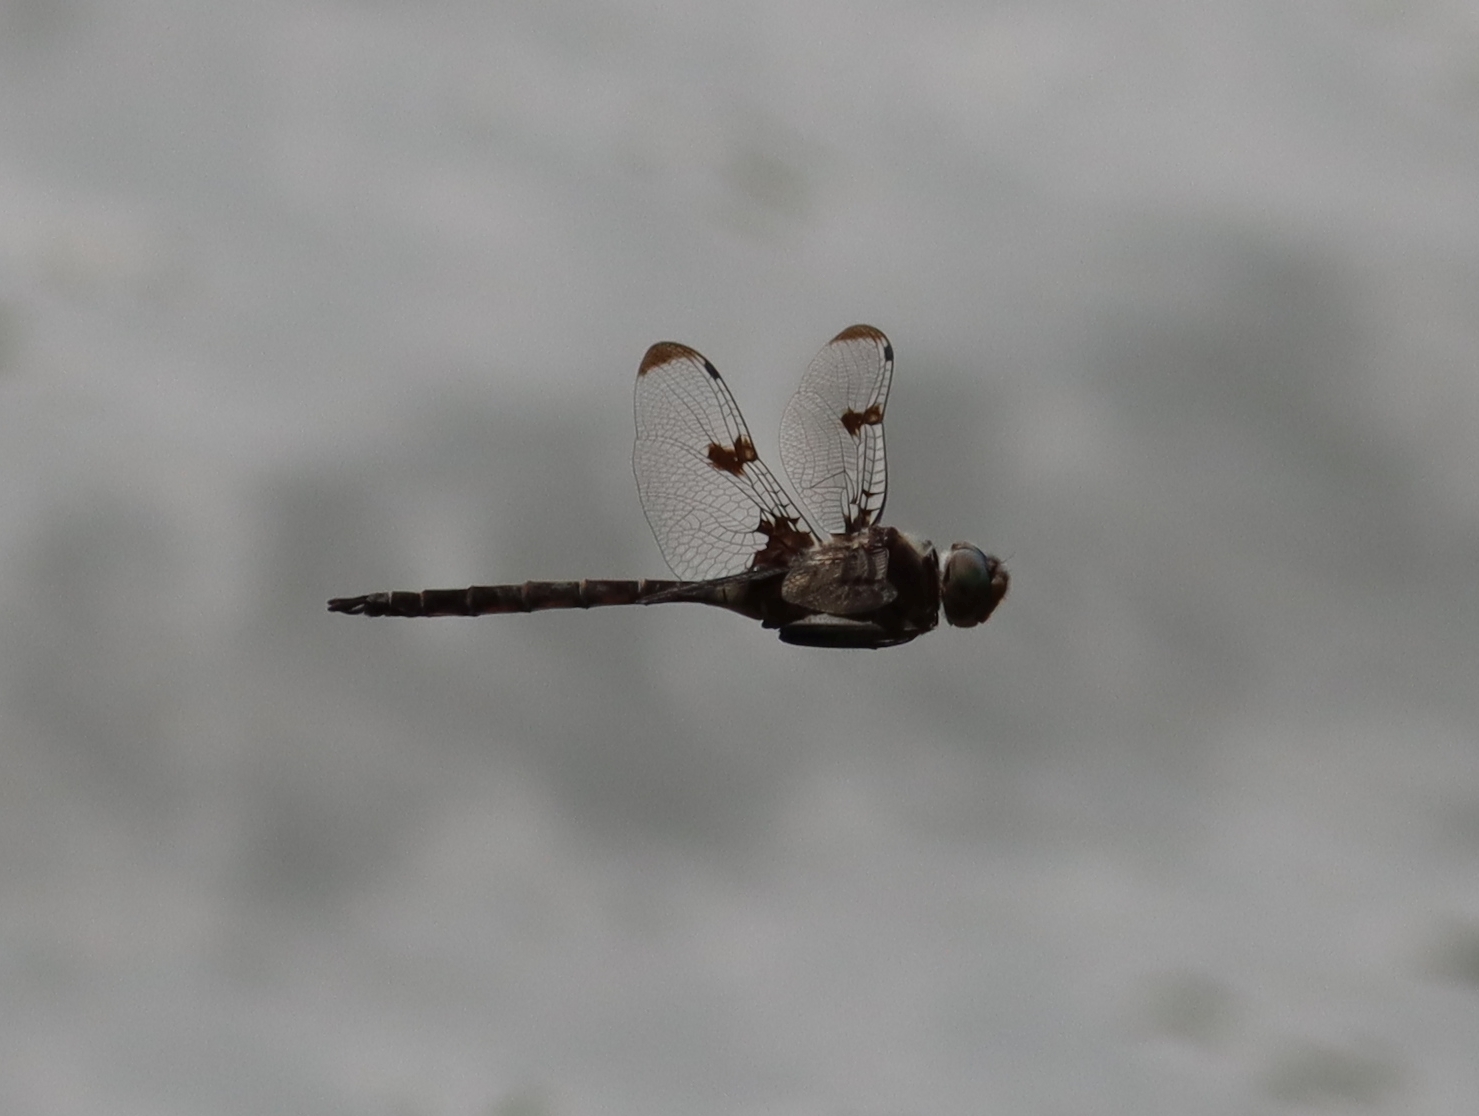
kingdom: Animalia
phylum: Arthropoda
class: Insecta
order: Odonata
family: Corduliidae
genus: Epitheca
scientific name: Epitheca princeps
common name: Prince baskettail
